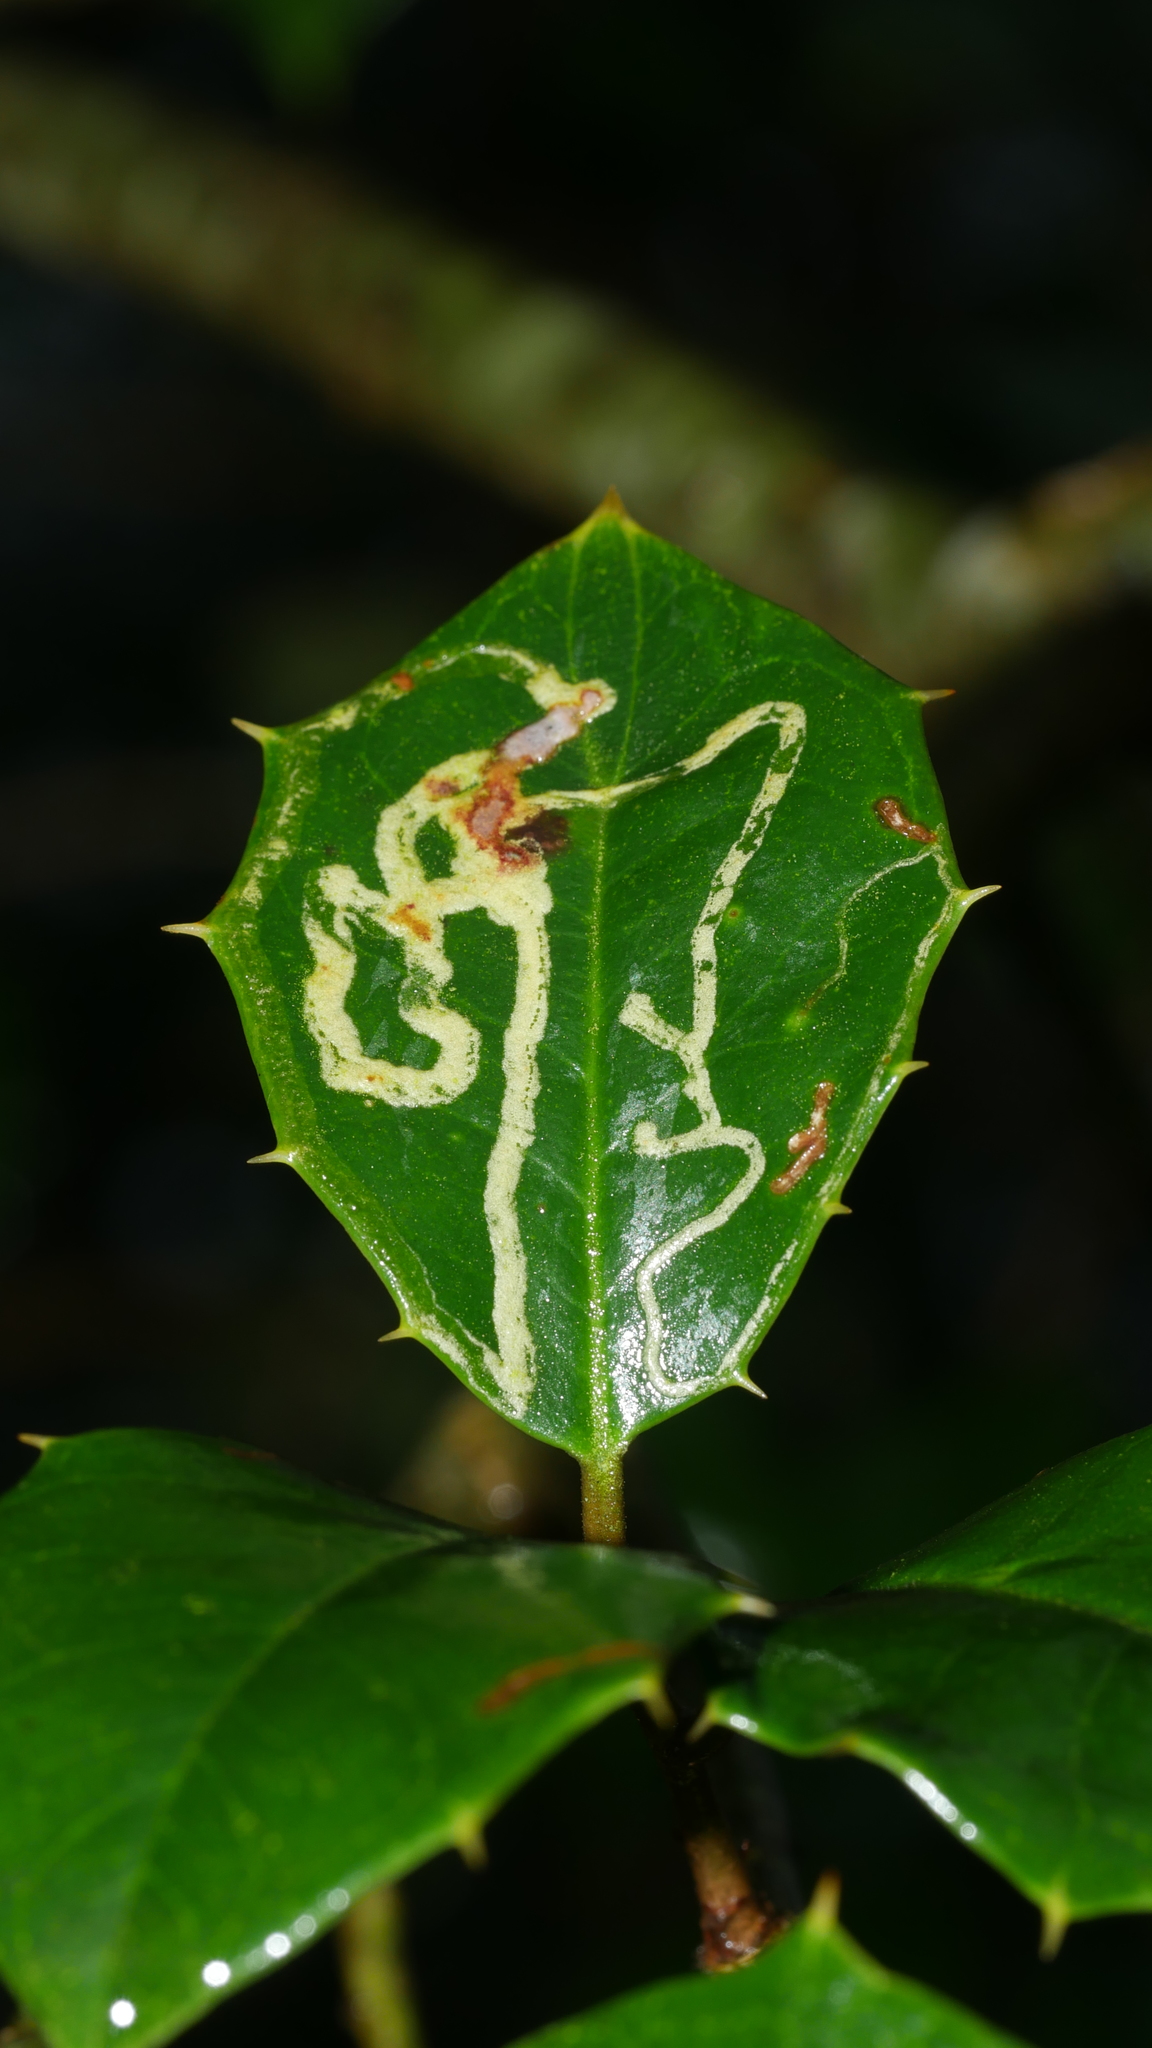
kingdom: Animalia
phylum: Arthropoda
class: Insecta
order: Diptera
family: Agromyzidae
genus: Phytomyza
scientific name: Phytomyza opacae
